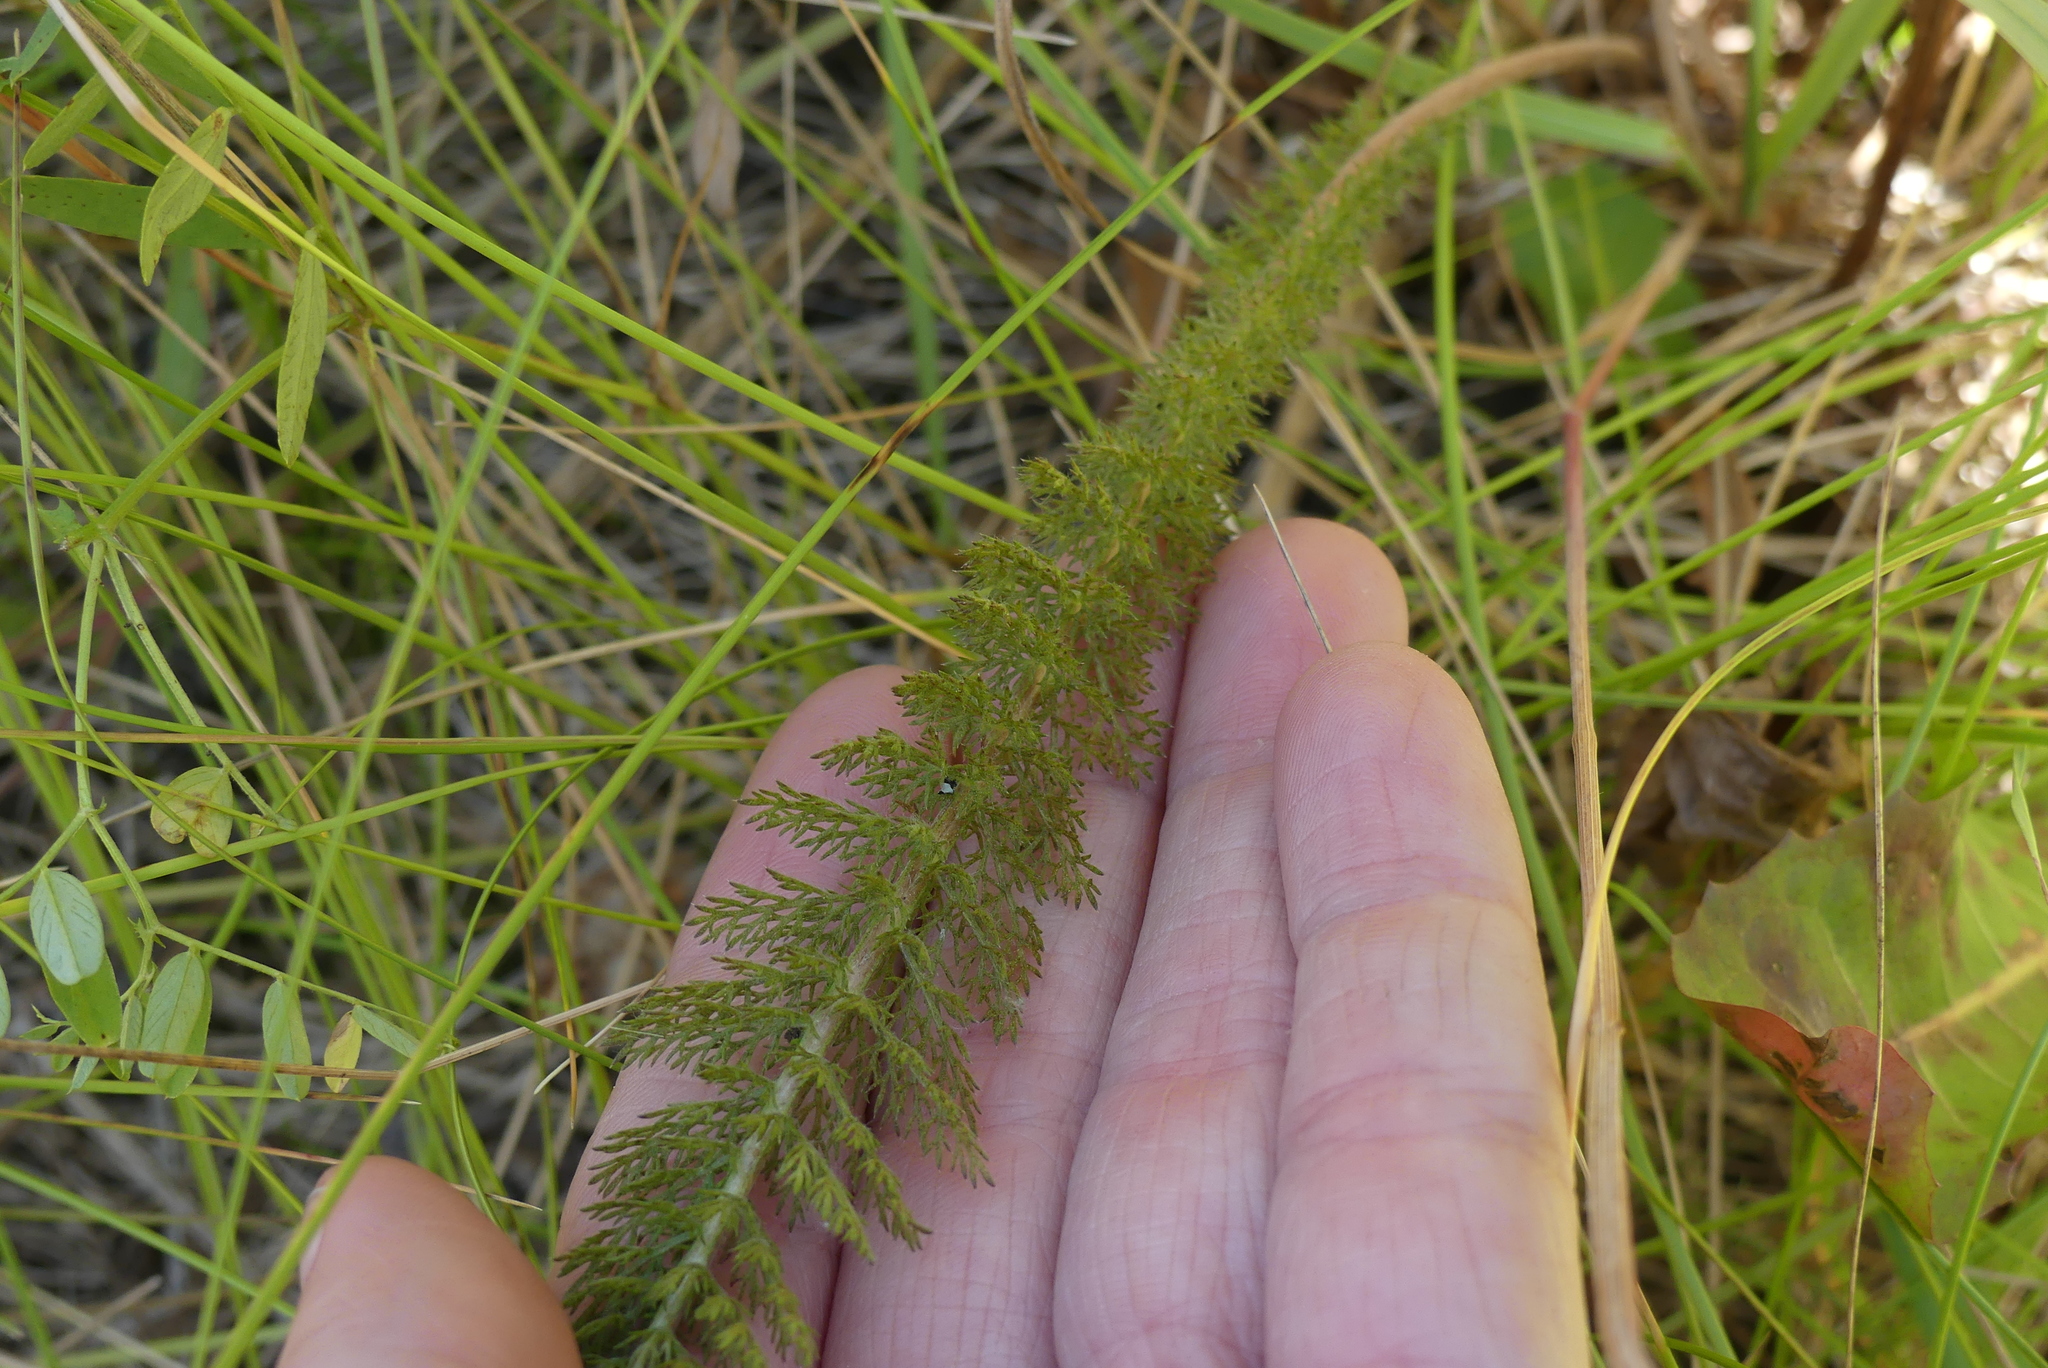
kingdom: Plantae
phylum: Tracheophyta
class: Magnoliopsida
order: Asterales
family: Asteraceae
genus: Achillea
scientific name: Achillea millefolium
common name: Yarrow
